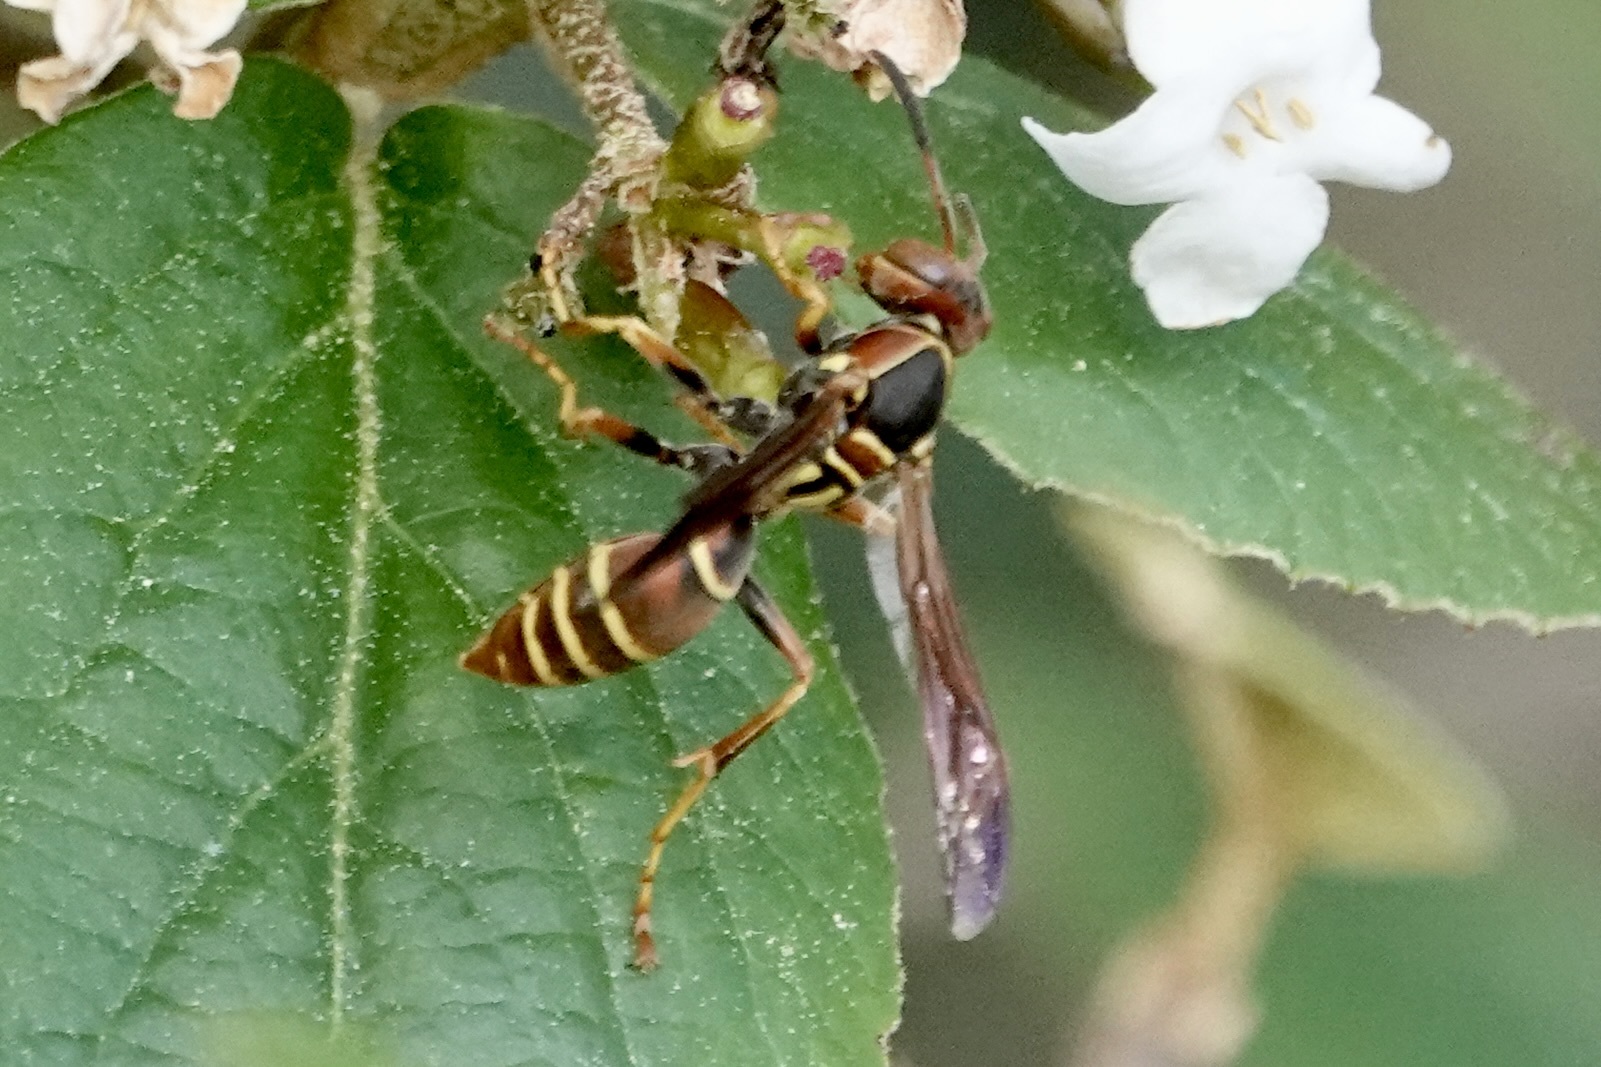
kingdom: Animalia
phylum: Arthropoda
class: Insecta
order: Hymenoptera
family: Eumenidae
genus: Polistes
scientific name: Polistes dorsalis
